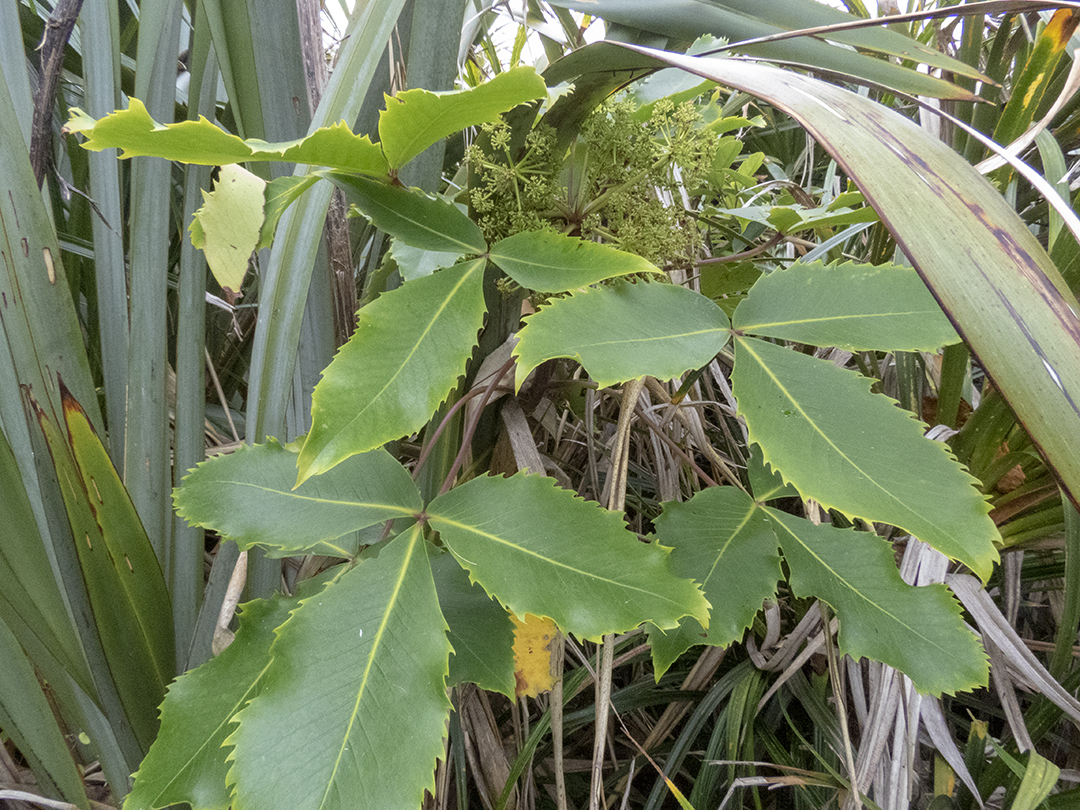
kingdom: Plantae
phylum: Tracheophyta
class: Magnoliopsida
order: Apiales
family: Araliaceae
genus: Neopanax
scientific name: Neopanax colensoi
